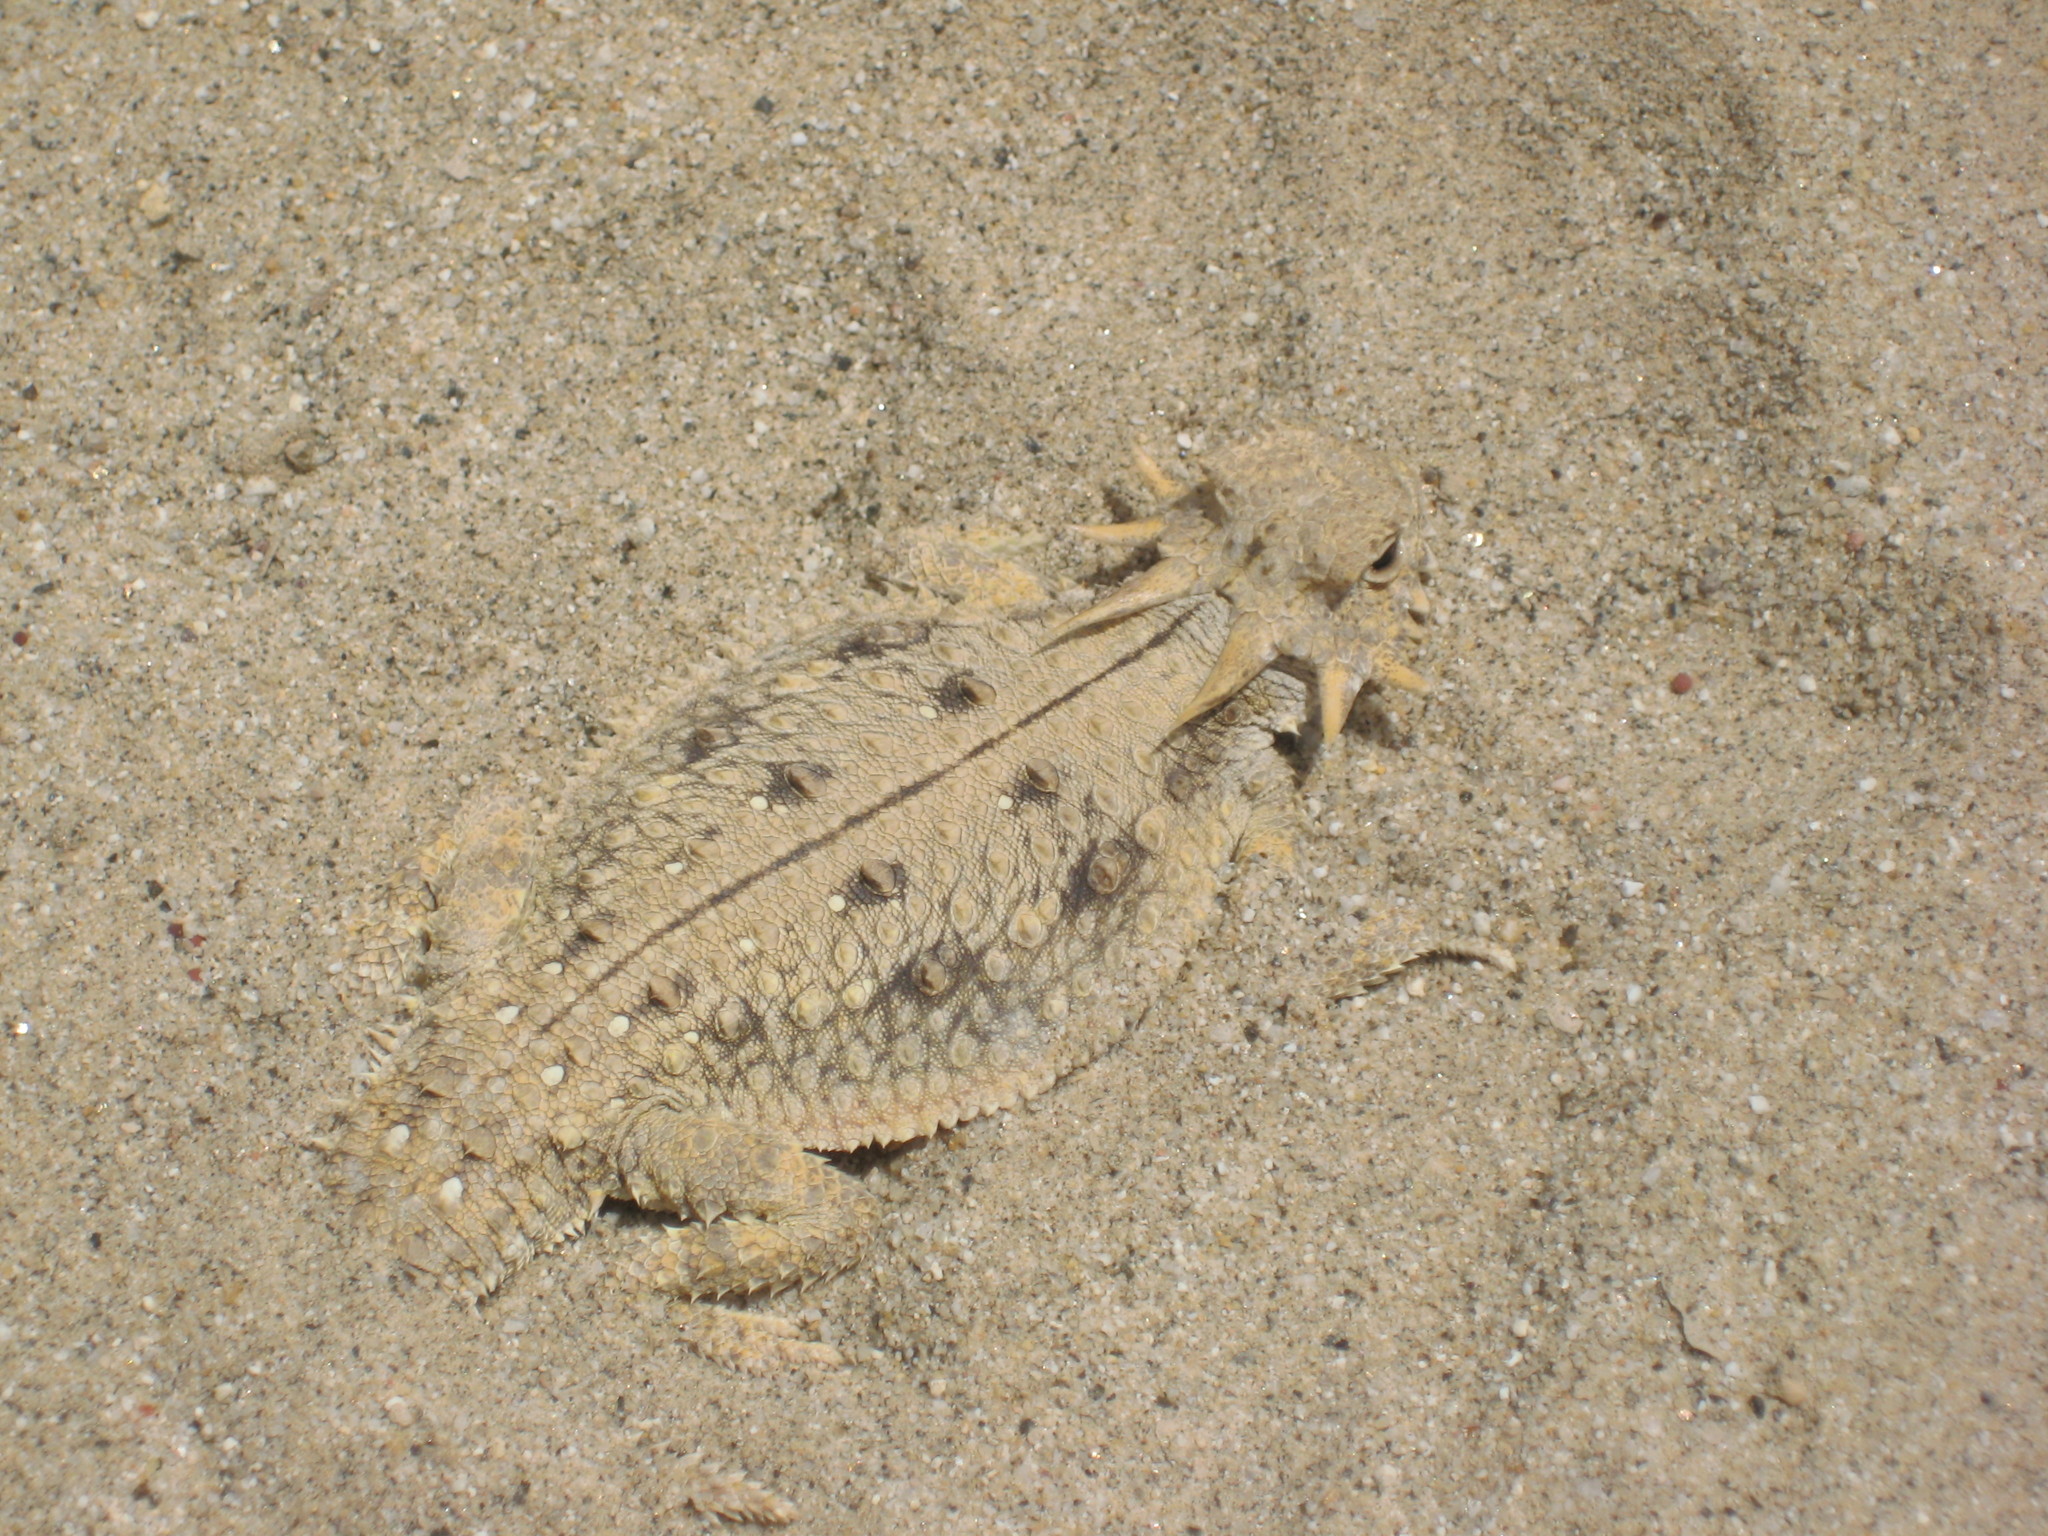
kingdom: Animalia
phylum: Chordata
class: Squamata
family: Phrynosomatidae
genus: Phrynosoma
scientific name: Phrynosoma mcallii
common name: Flat-tailed horned lizard
